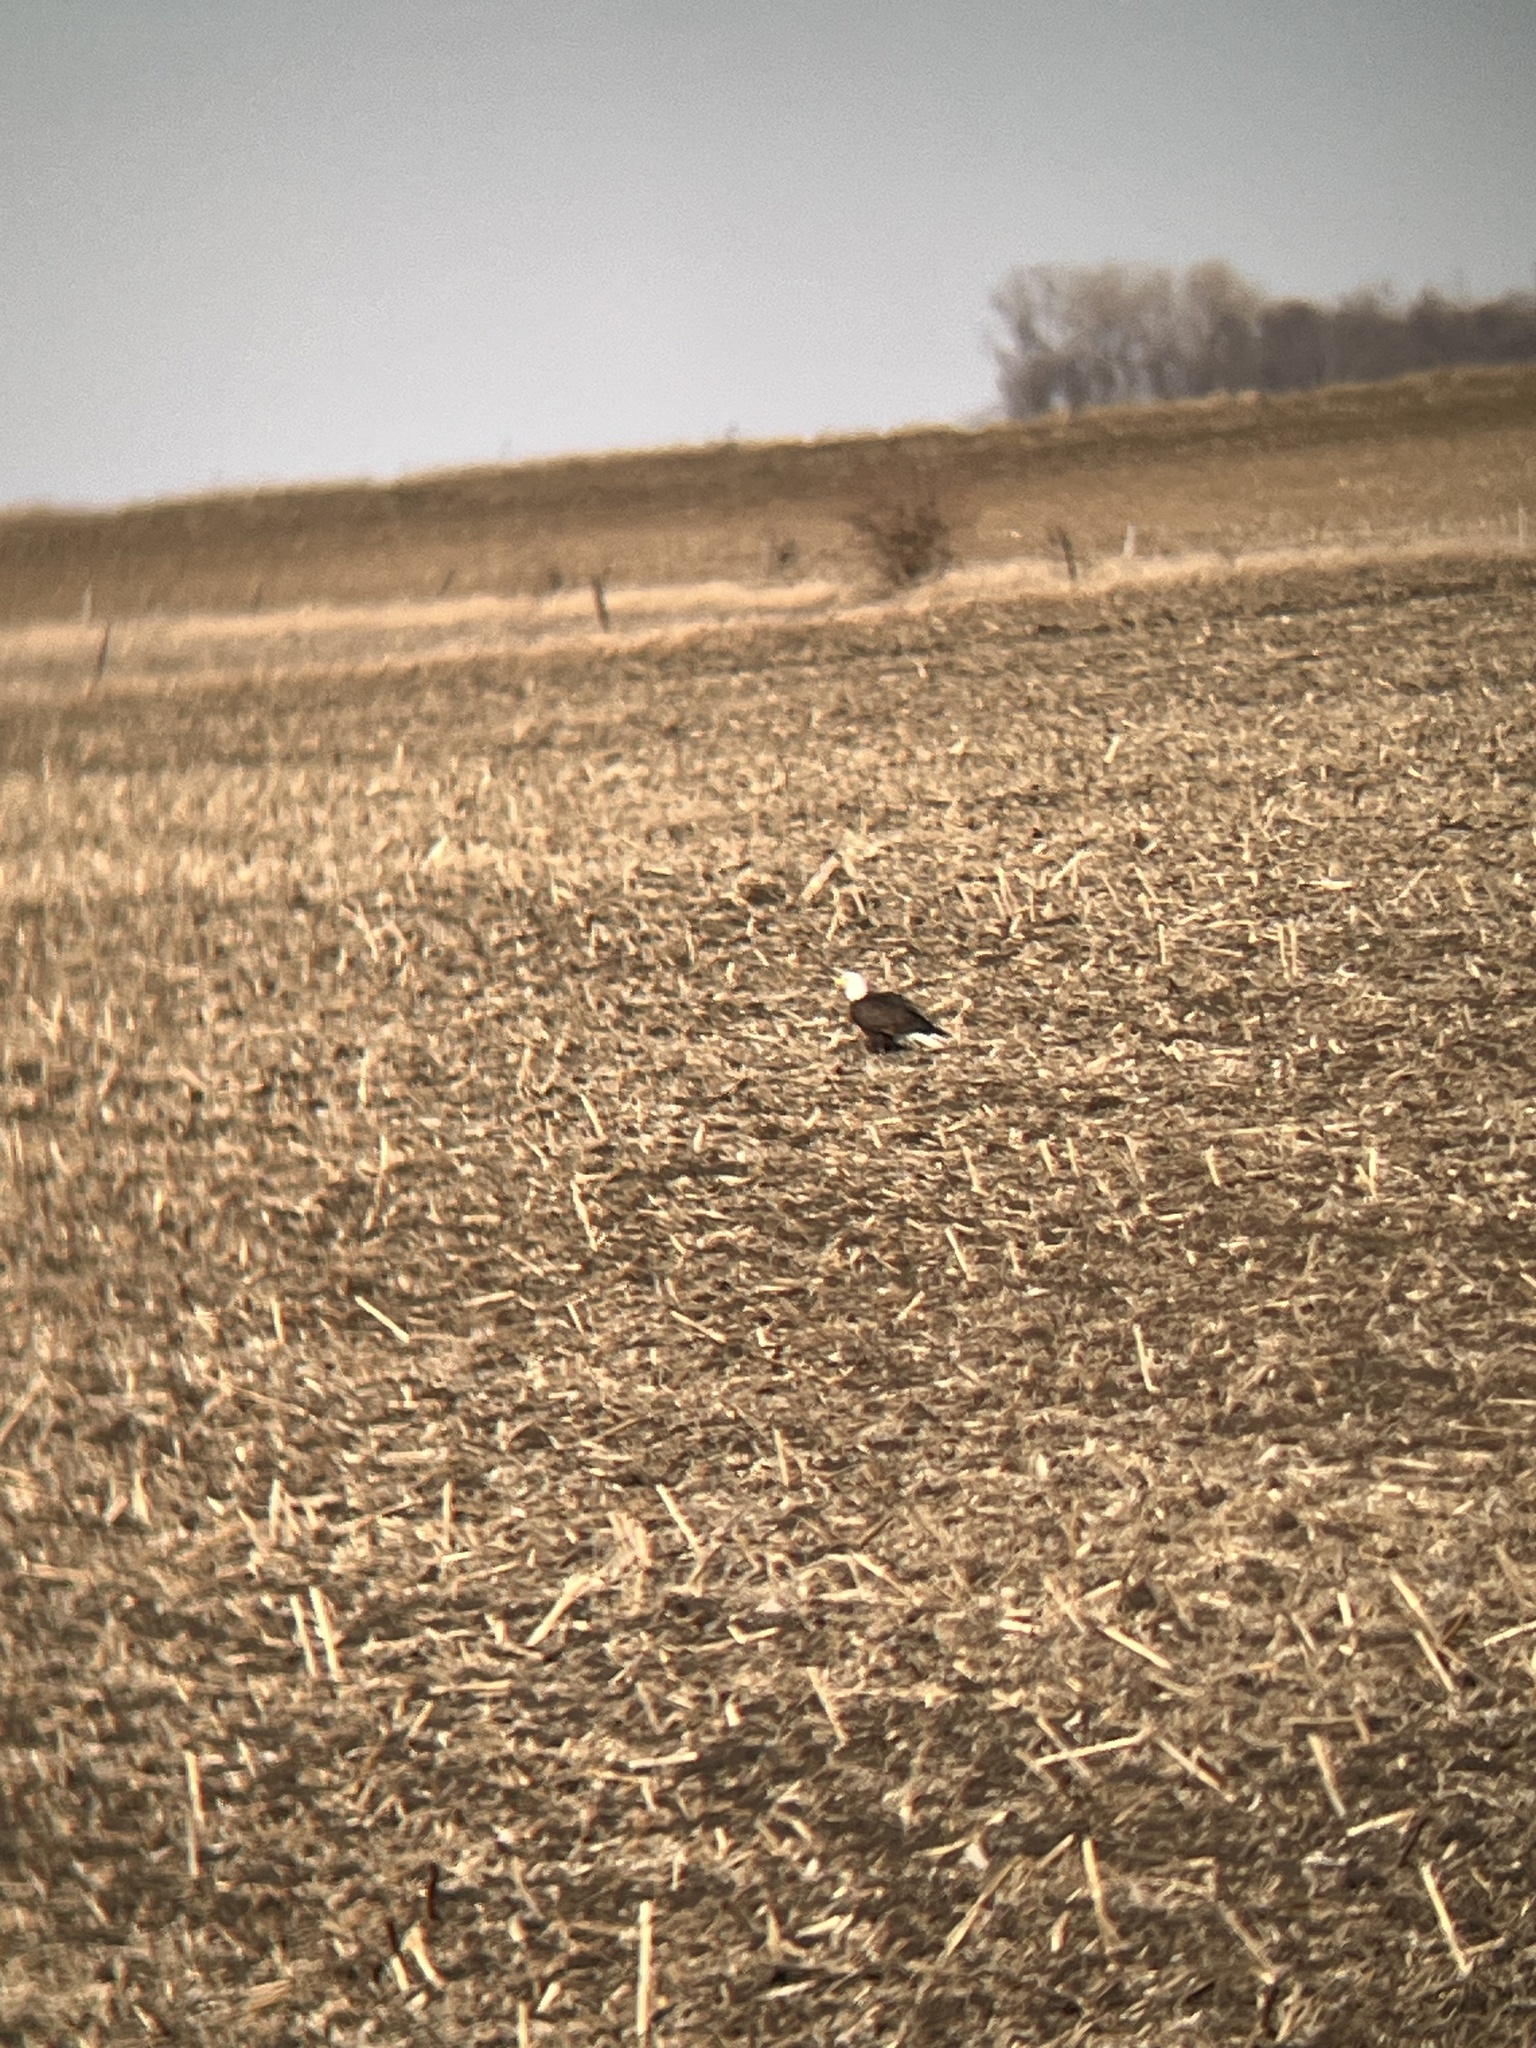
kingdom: Animalia
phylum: Chordata
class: Aves
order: Accipitriformes
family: Accipitridae
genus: Haliaeetus
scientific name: Haliaeetus leucocephalus
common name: Bald eagle
